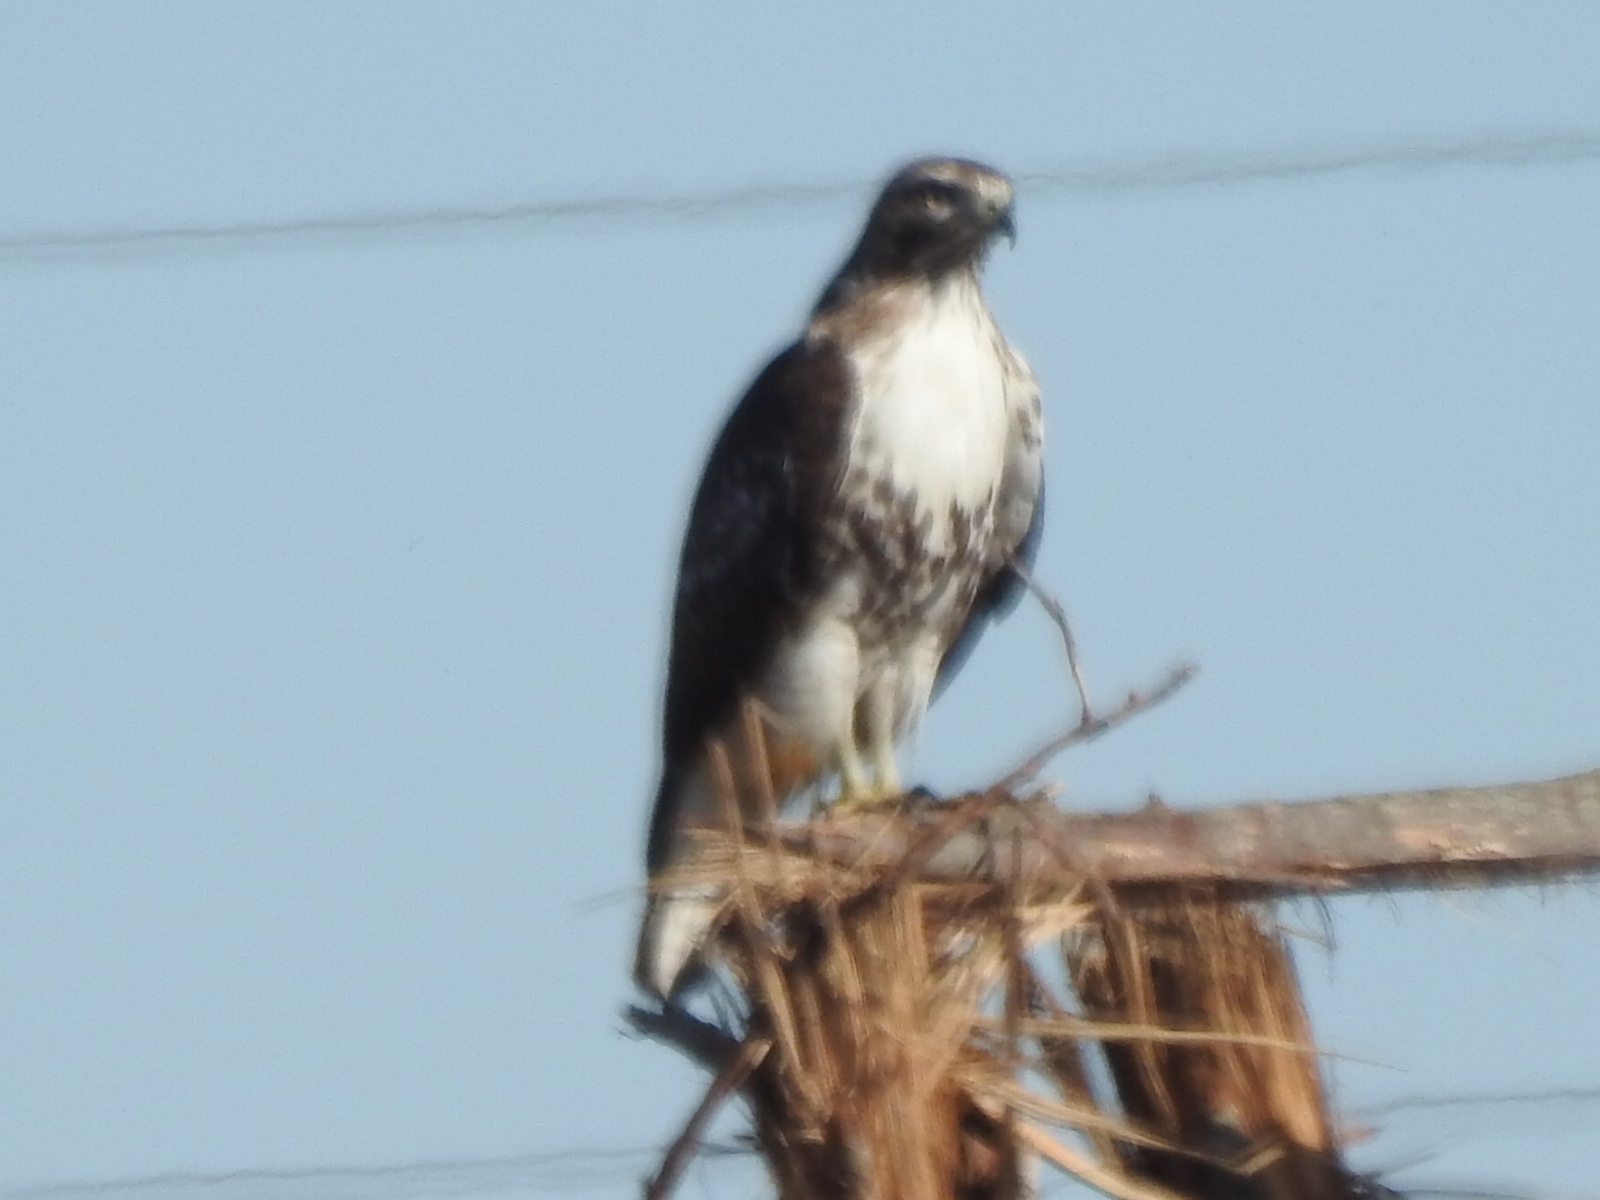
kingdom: Animalia
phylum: Chordata
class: Aves
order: Accipitriformes
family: Accipitridae
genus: Buteo
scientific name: Buteo jamaicensis
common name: Red-tailed hawk
